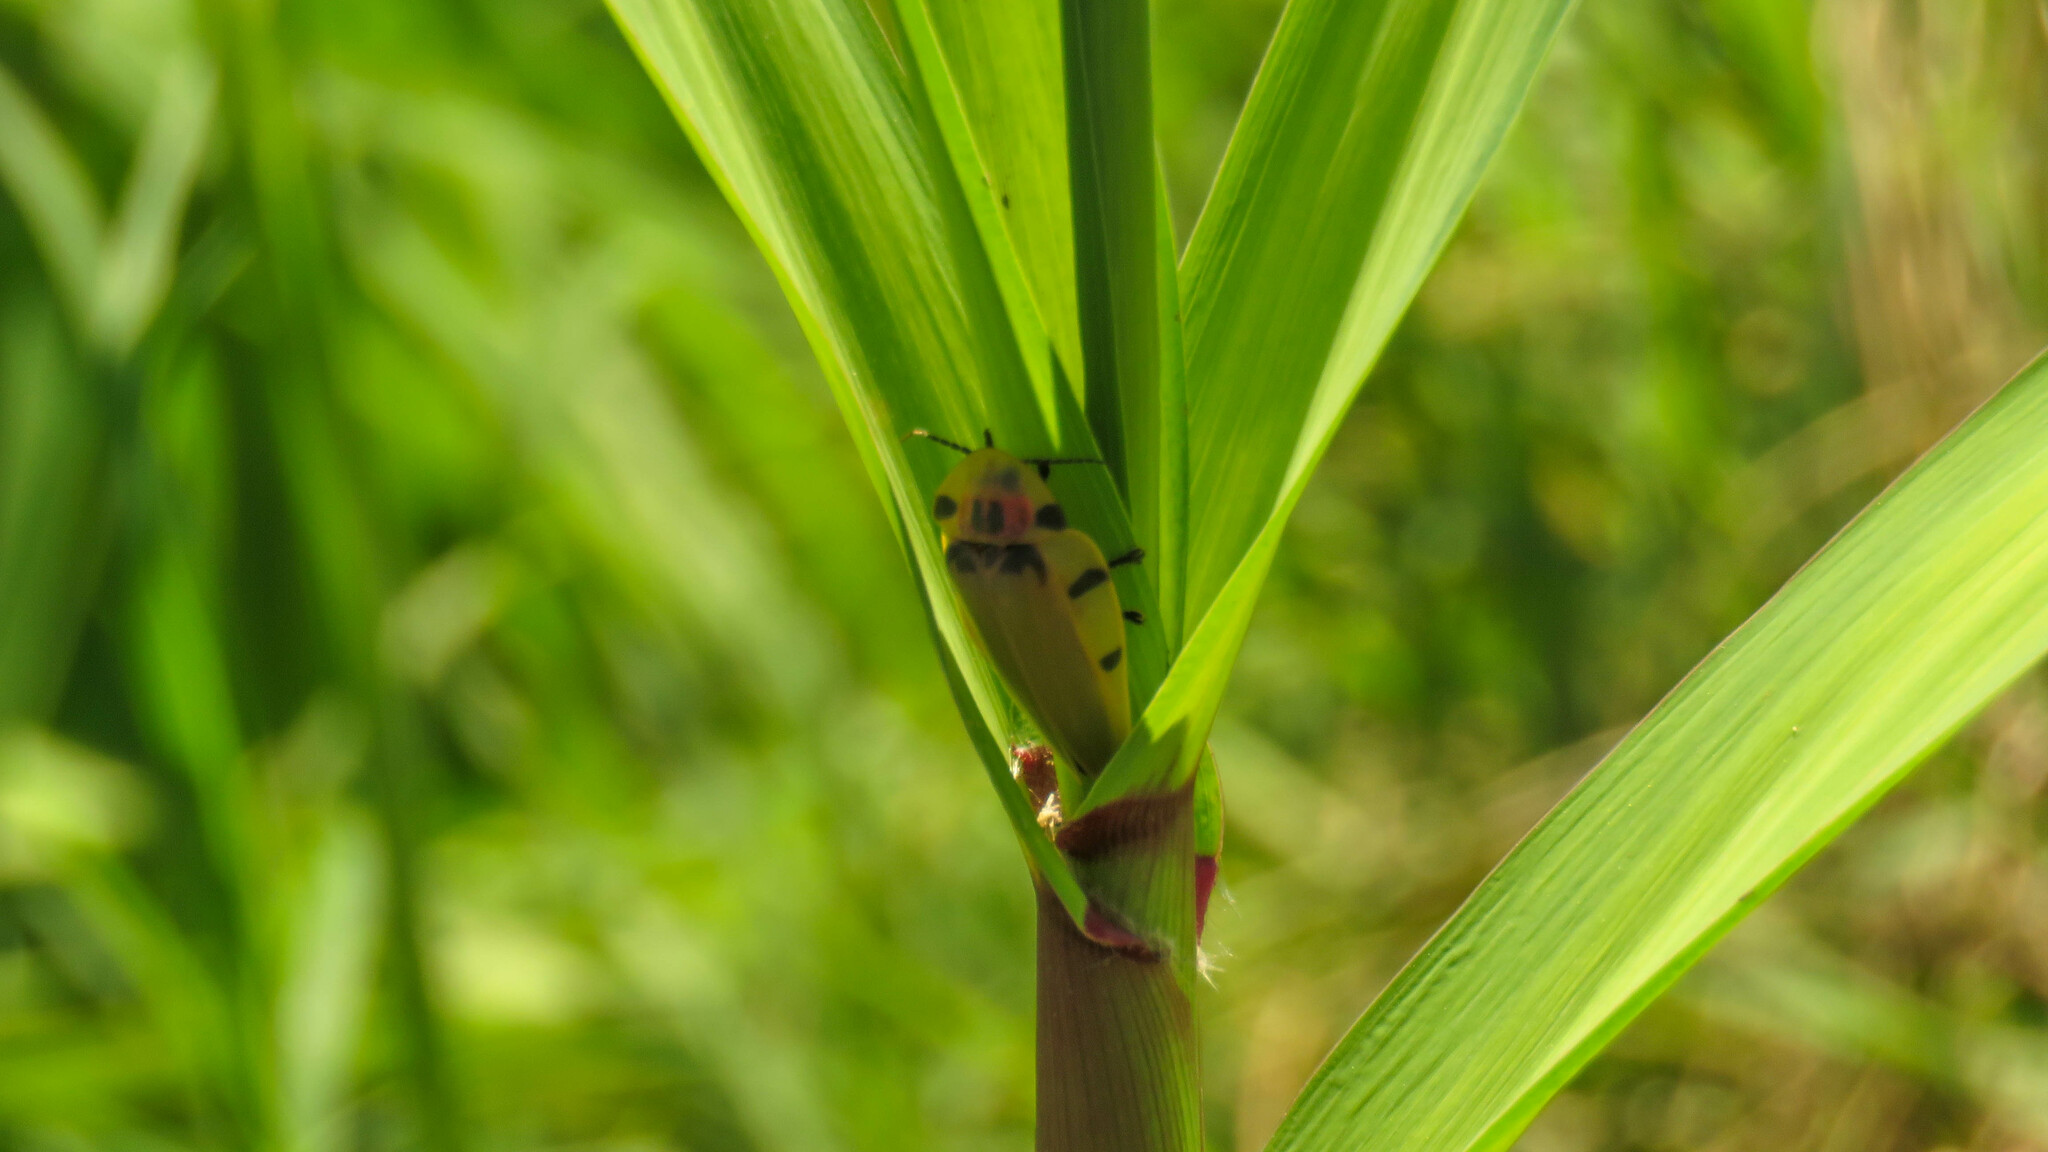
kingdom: Animalia
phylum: Arthropoda
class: Insecta
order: Coleoptera
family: Lampyridae
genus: Aspisoma
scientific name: Aspisoma sticticum
